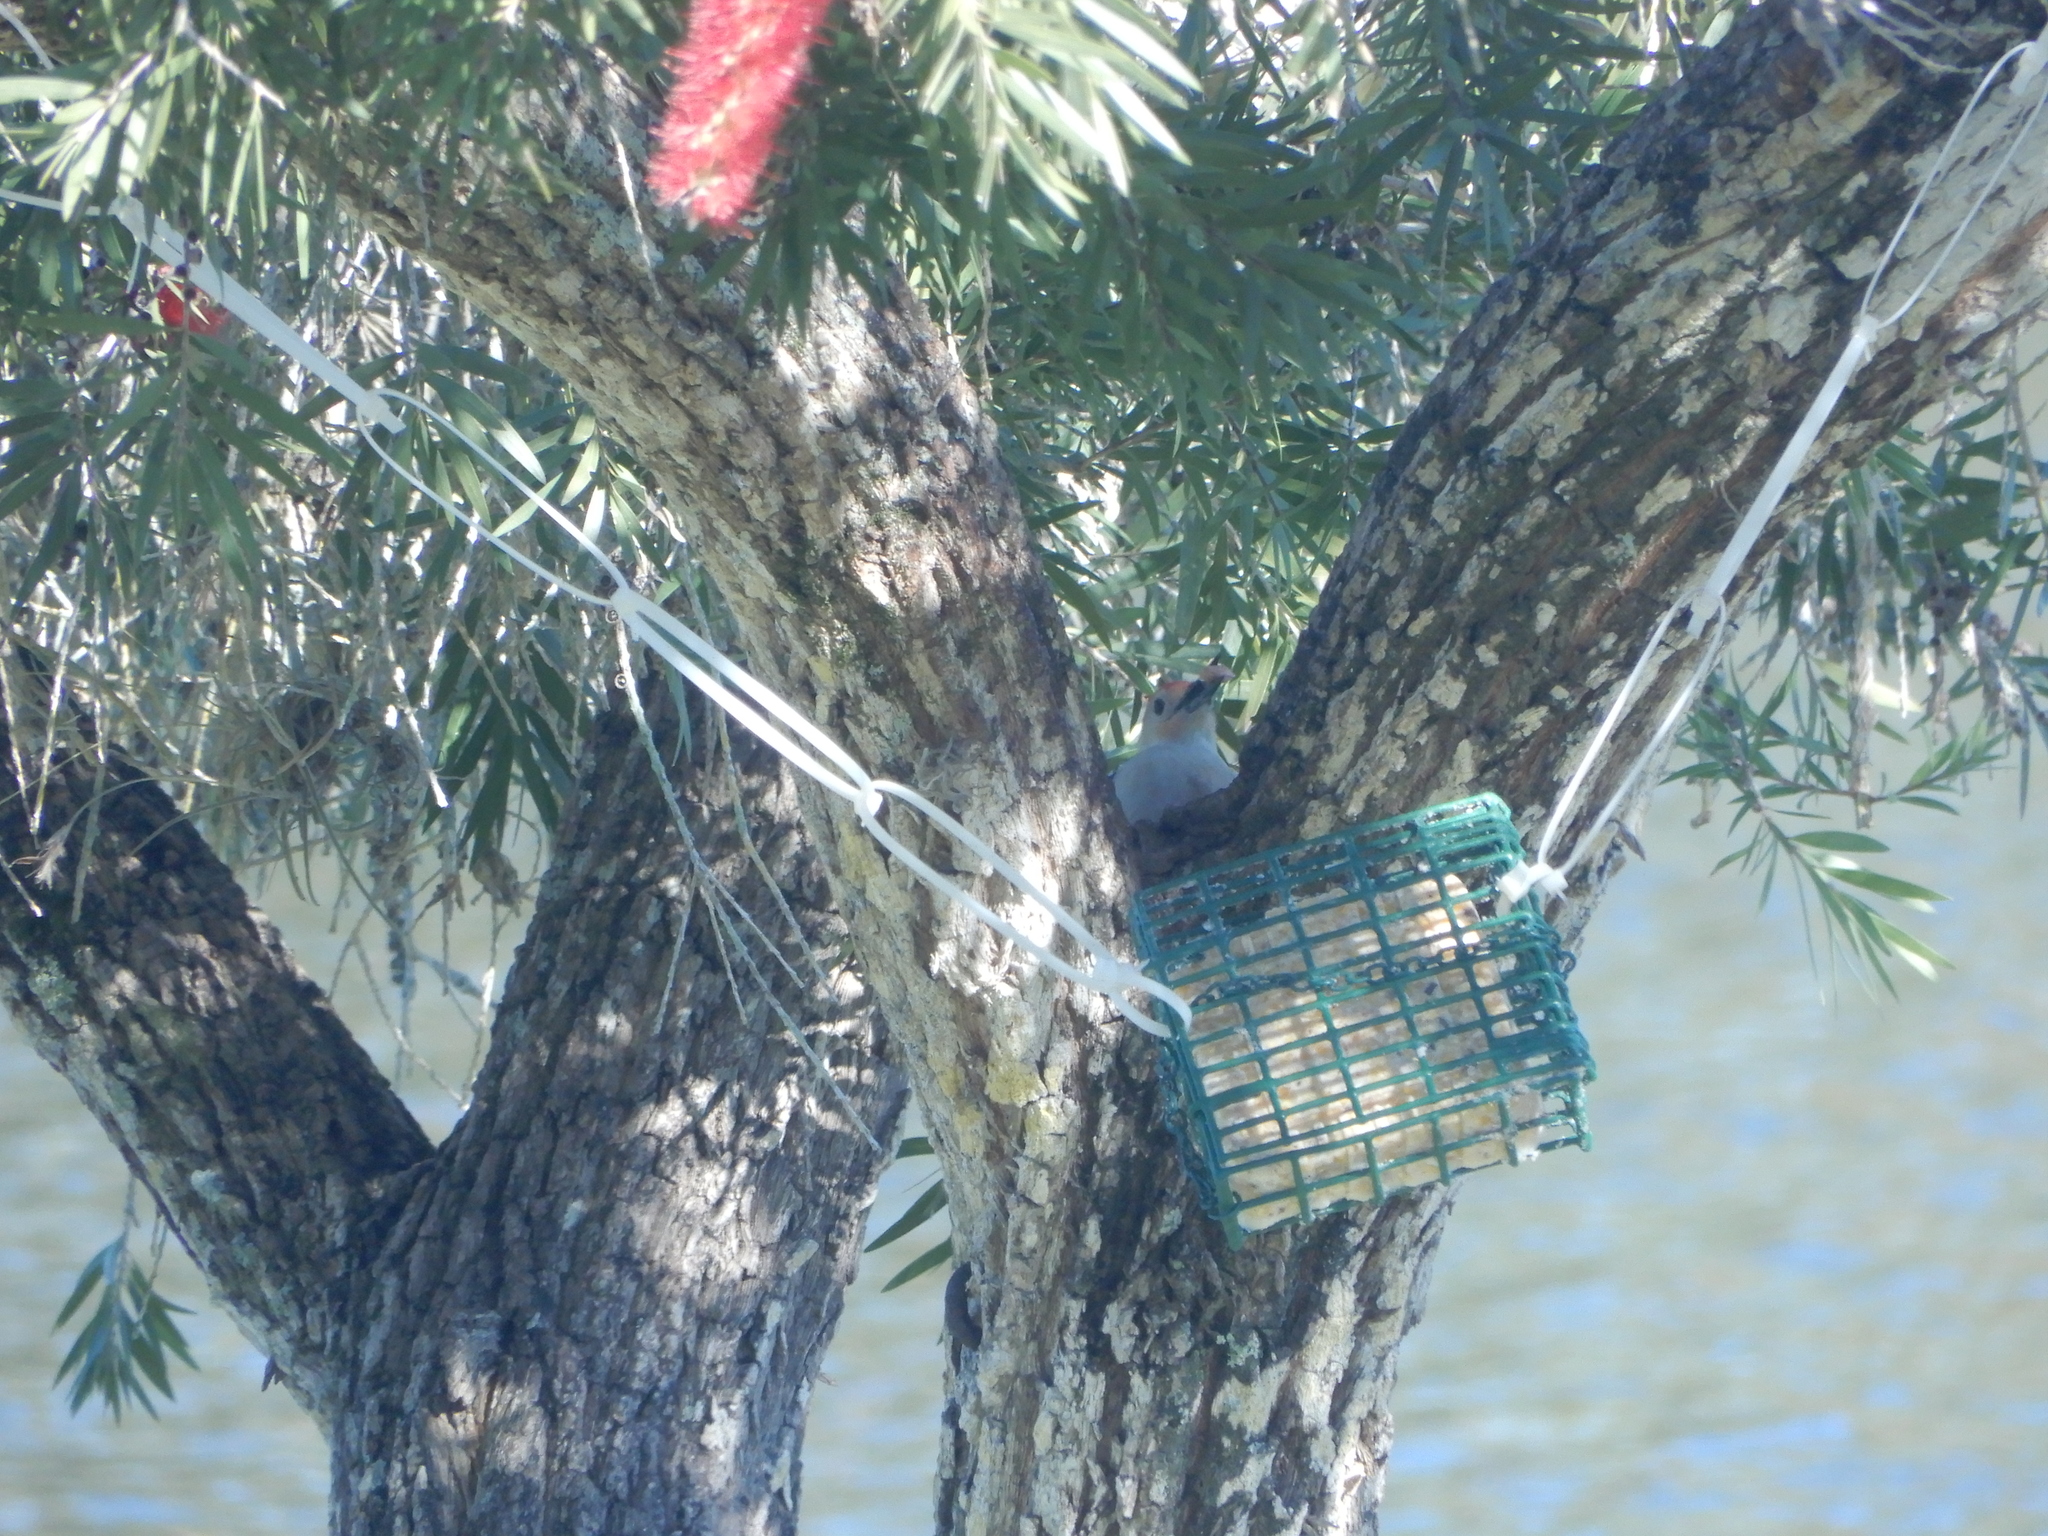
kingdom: Animalia
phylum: Chordata
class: Aves
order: Piciformes
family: Picidae
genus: Melanerpes
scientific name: Melanerpes carolinus
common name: Red-bellied woodpecker
